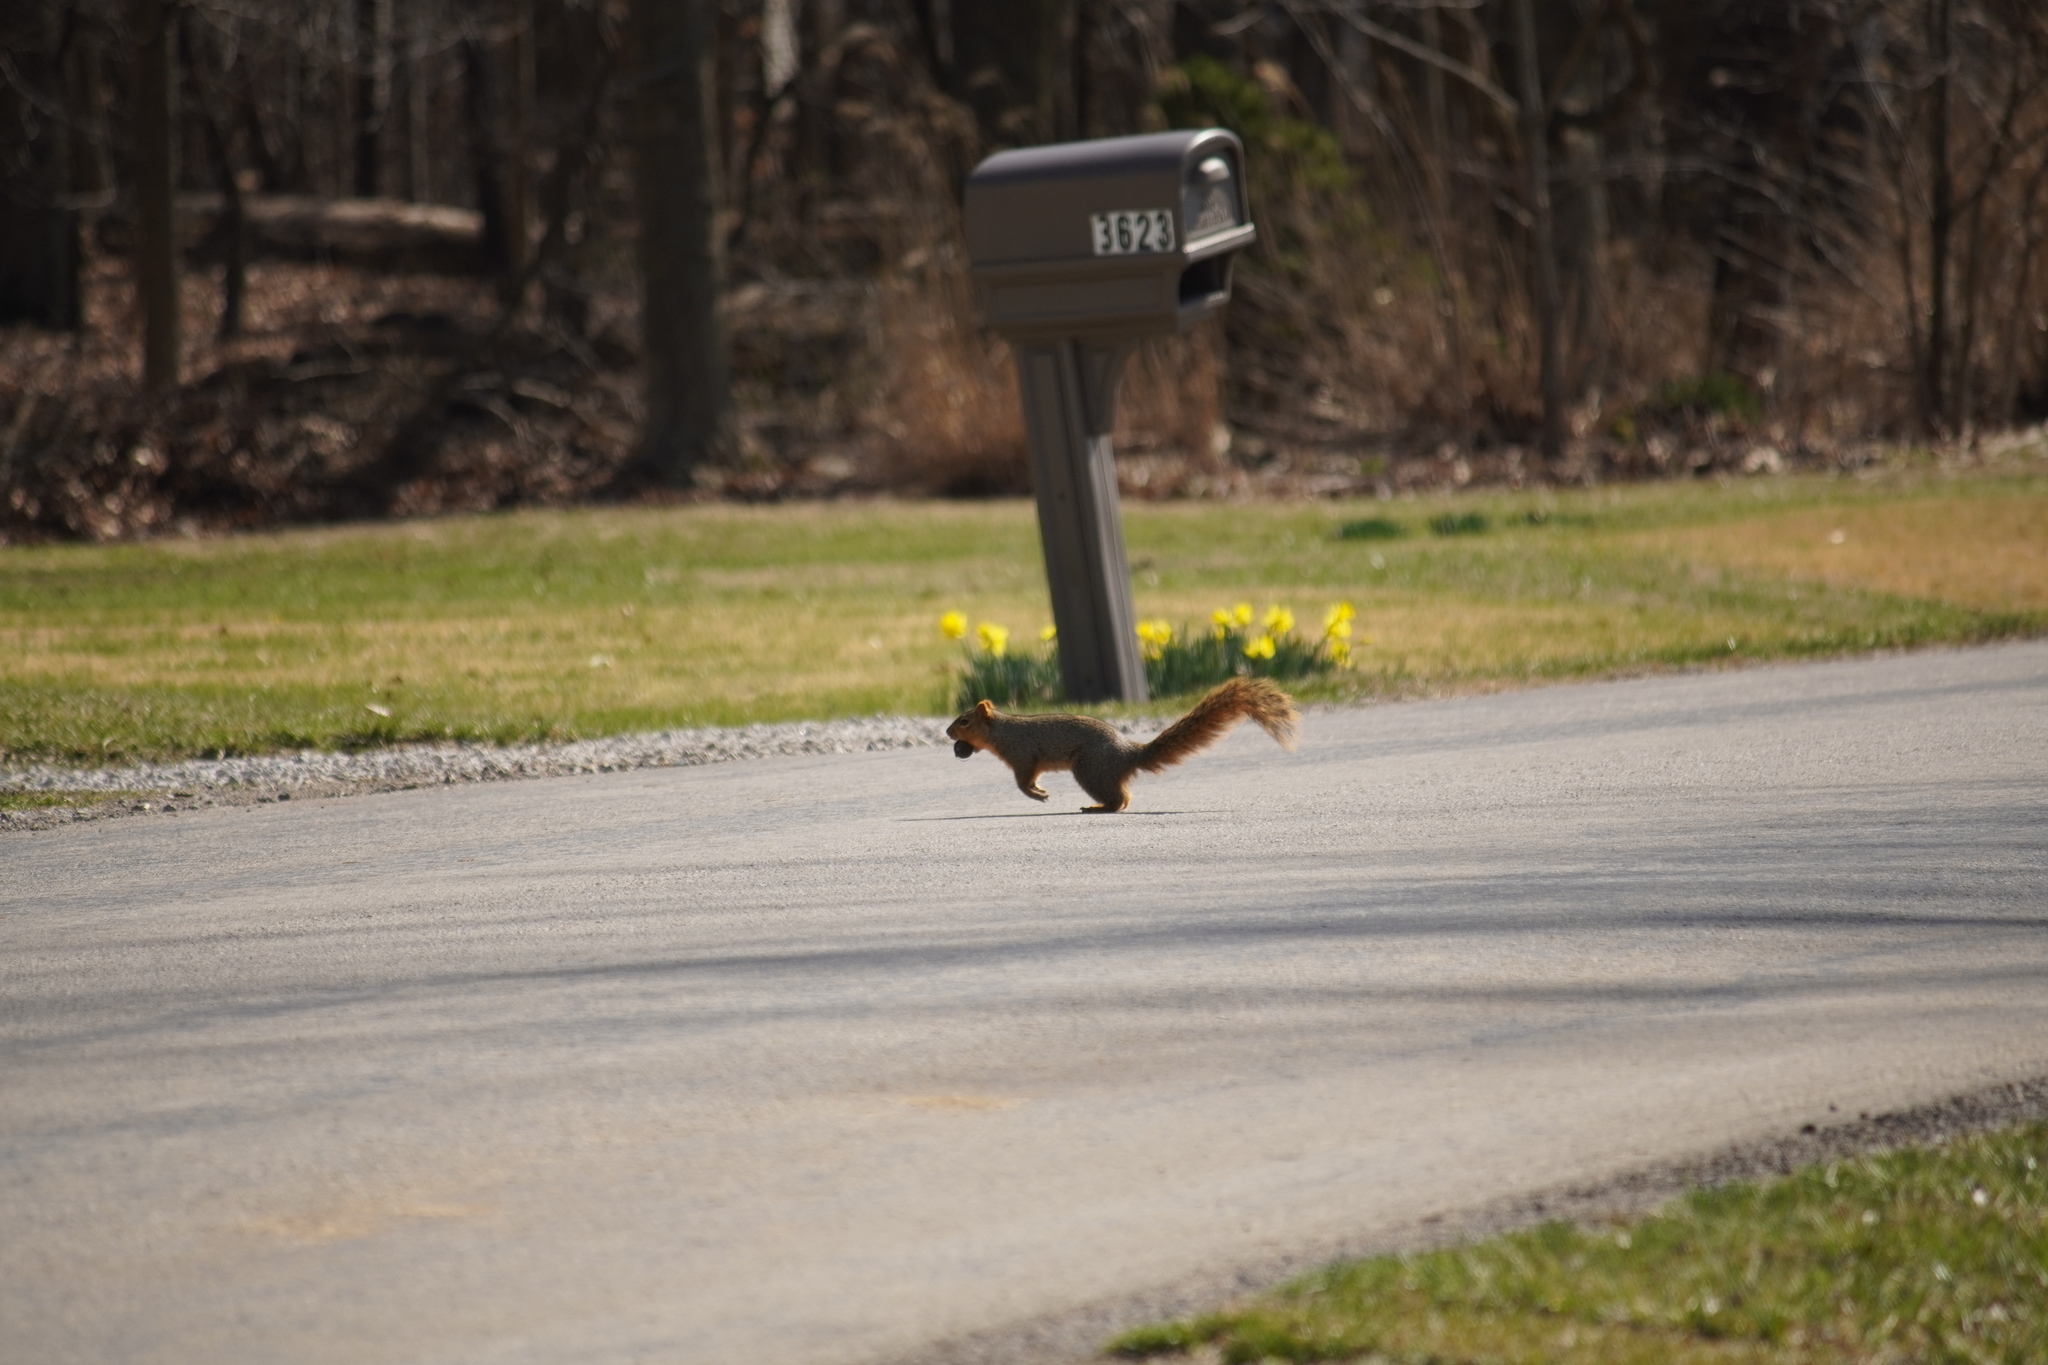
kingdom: Animalia
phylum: Chordata
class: Mammalia
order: Rodentia
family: Sciuridae
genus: Sciurus
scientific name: Sciurus niger
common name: Fox squirrel
